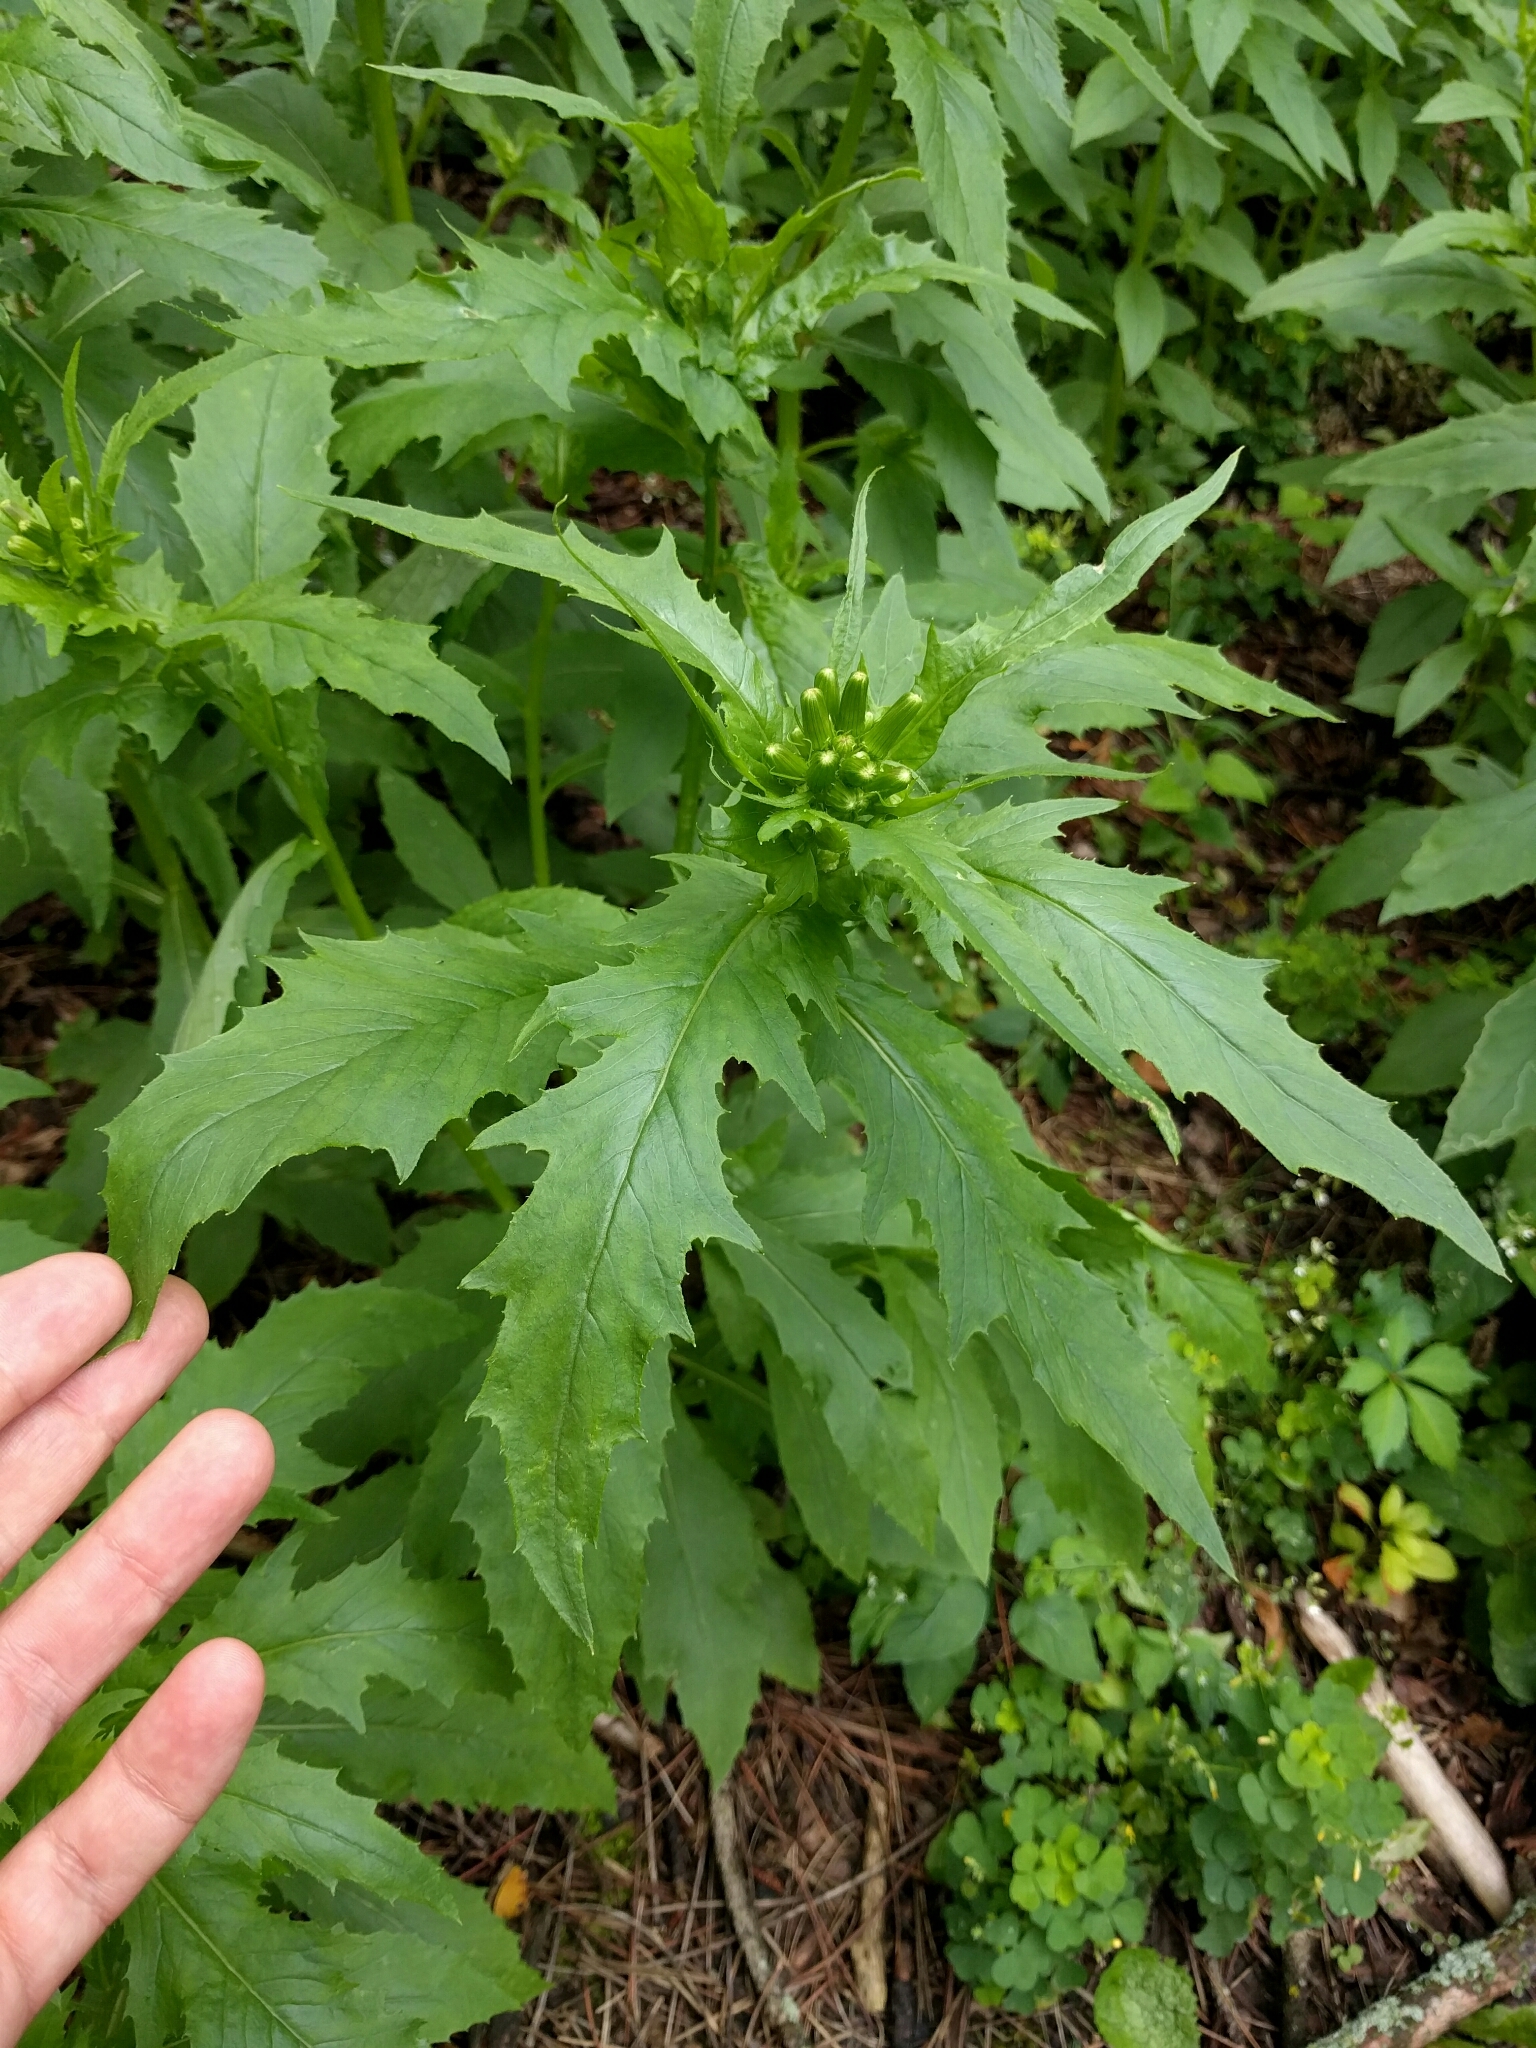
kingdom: Plantae
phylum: Tracheophyta
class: Magnoliopsida
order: Asterales
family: Asteraceae
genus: Erechtites
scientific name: Erechtites hieraciifolius
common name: American burnweed
